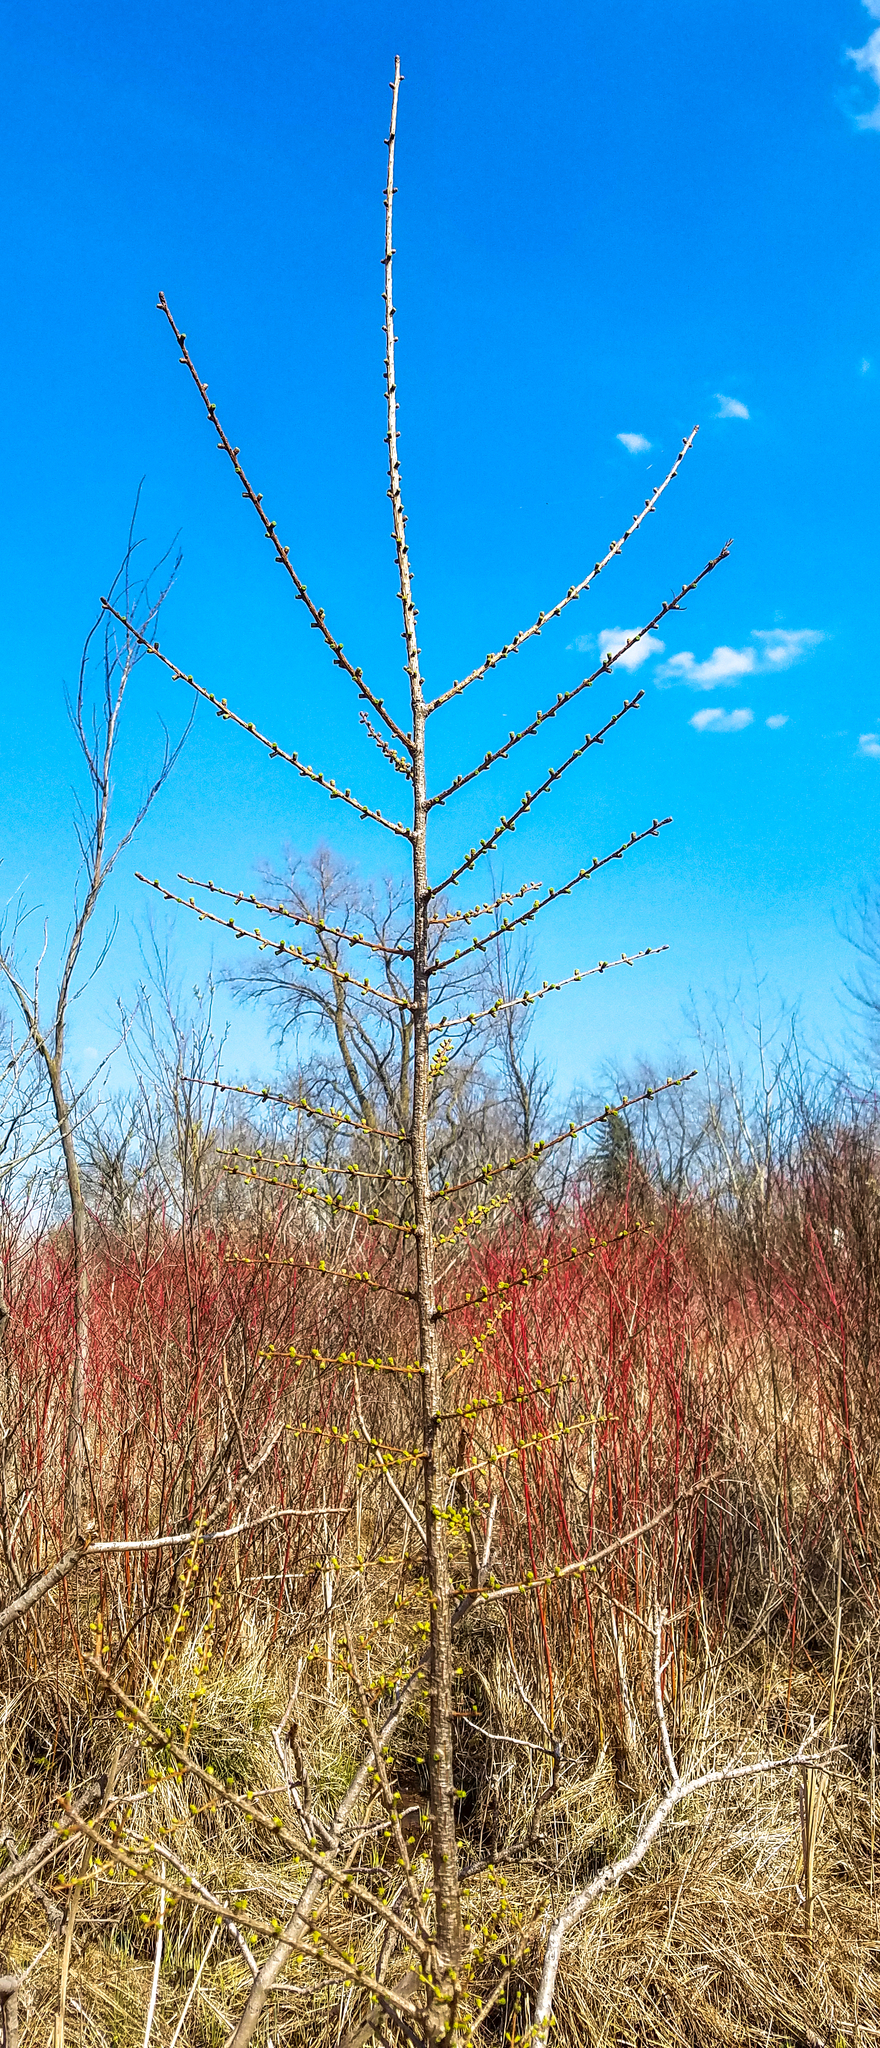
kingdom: Plantae
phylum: Tracheophyta
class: Pinopsida
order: Pinales
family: Pinaceae
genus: Larix
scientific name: Larix laricina
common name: American larch
